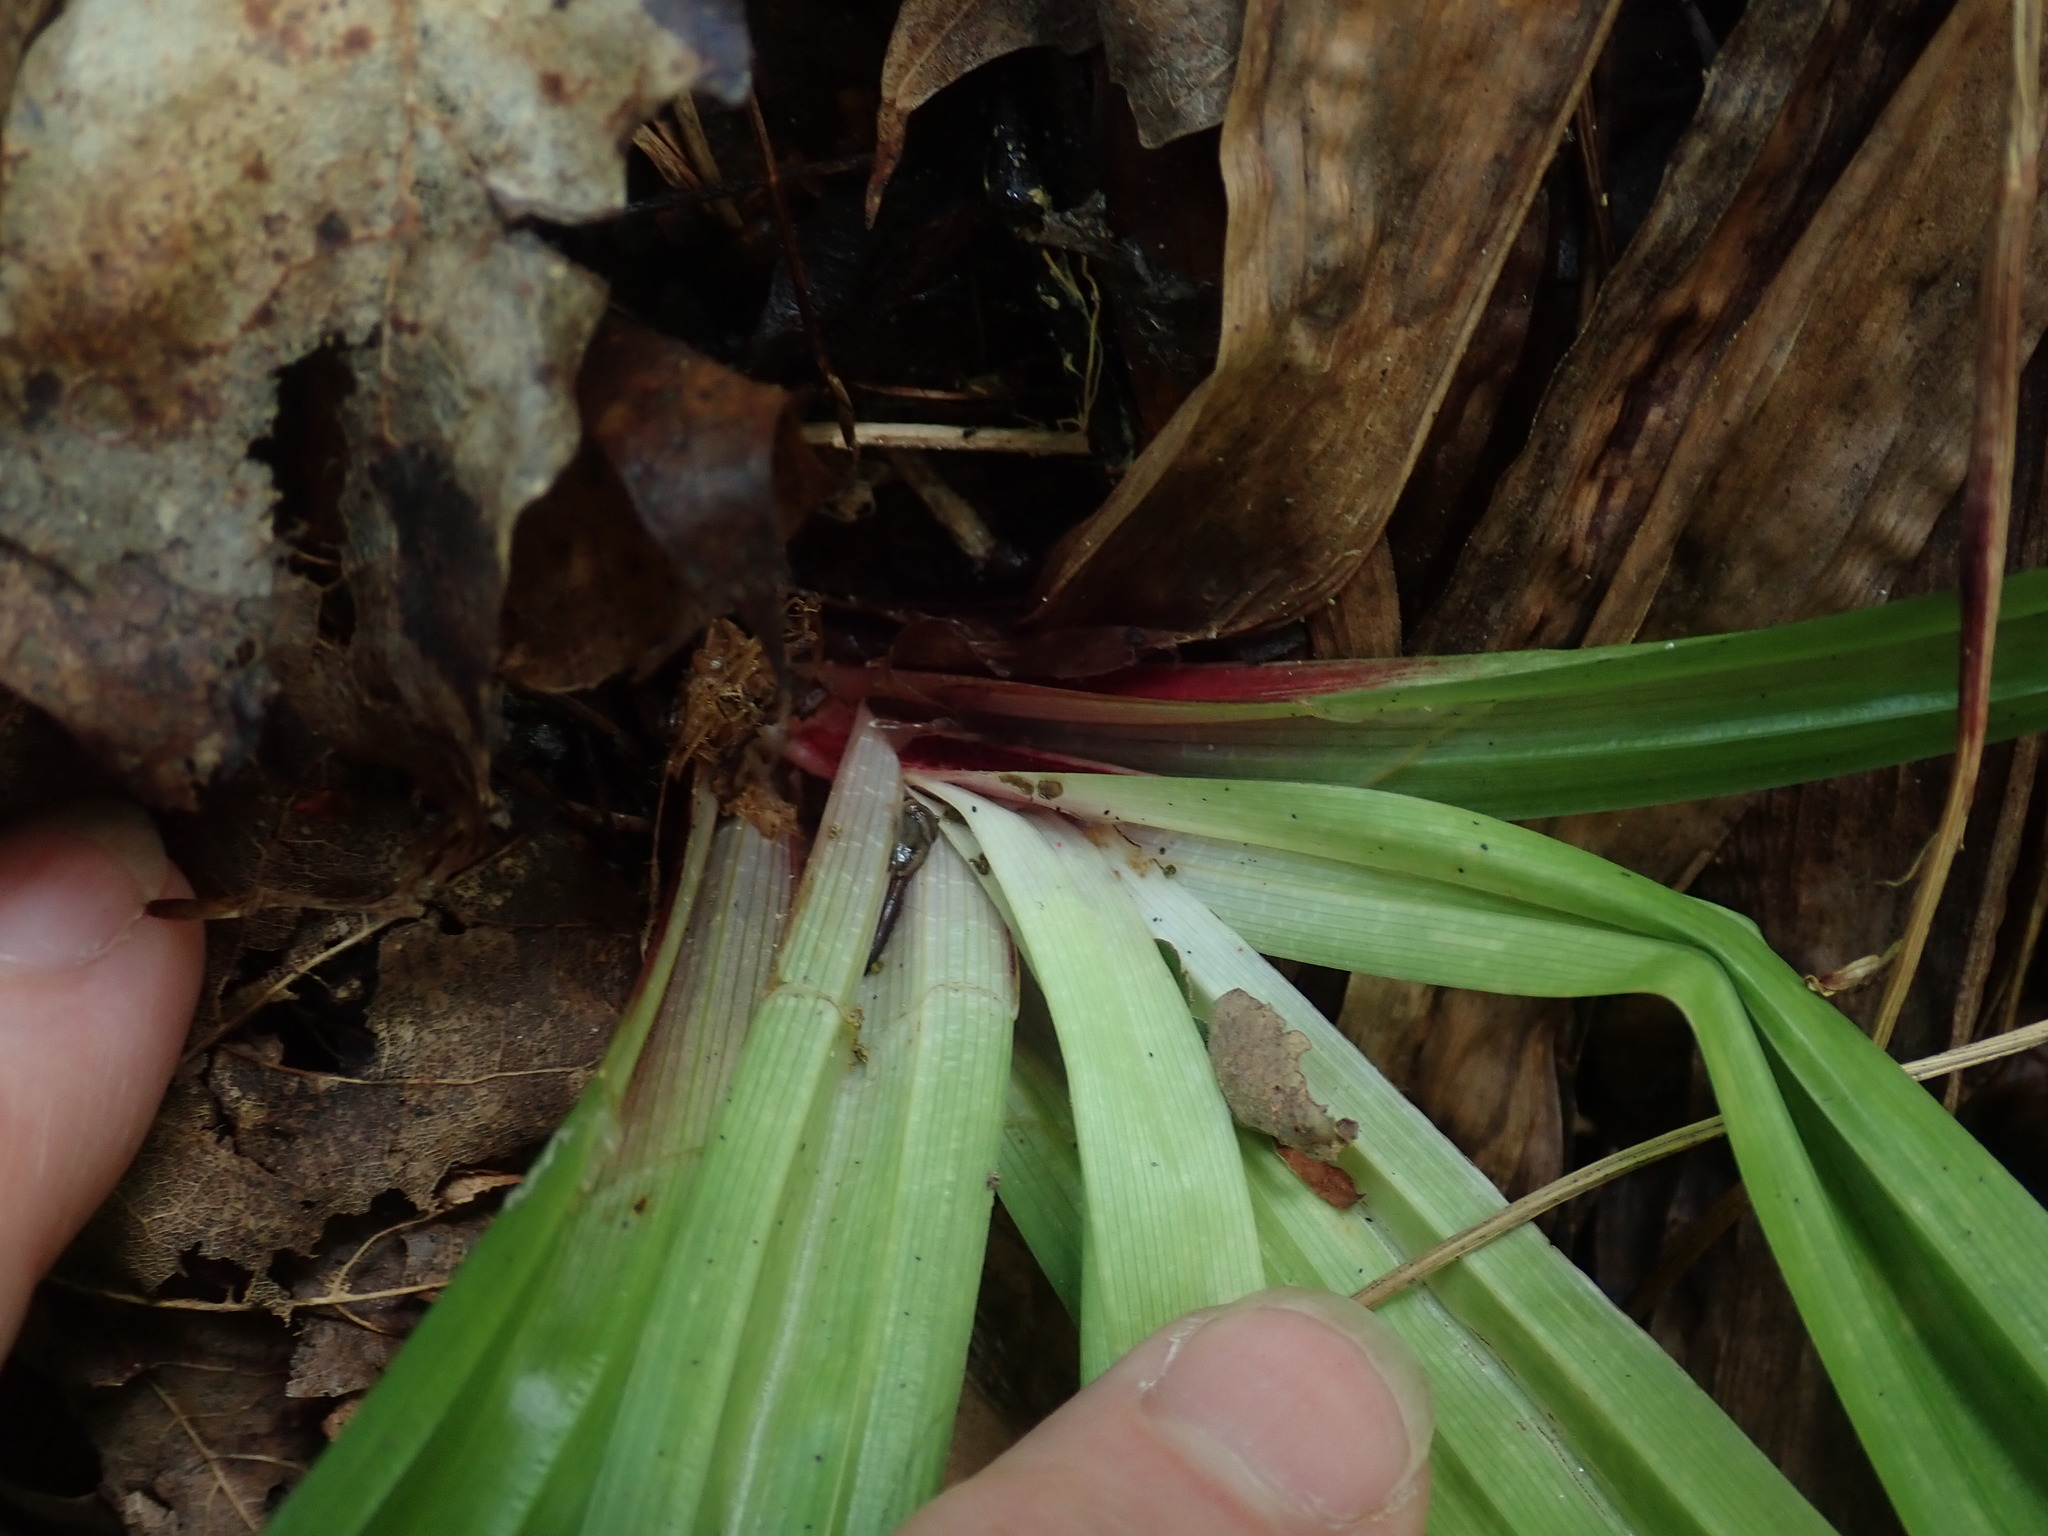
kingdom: Plantae
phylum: Tracheophyta
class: Liliopsida
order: Poales
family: Cyperaceae
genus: Carex
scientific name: Carex plantaginea
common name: Plantain-leaved sedge
